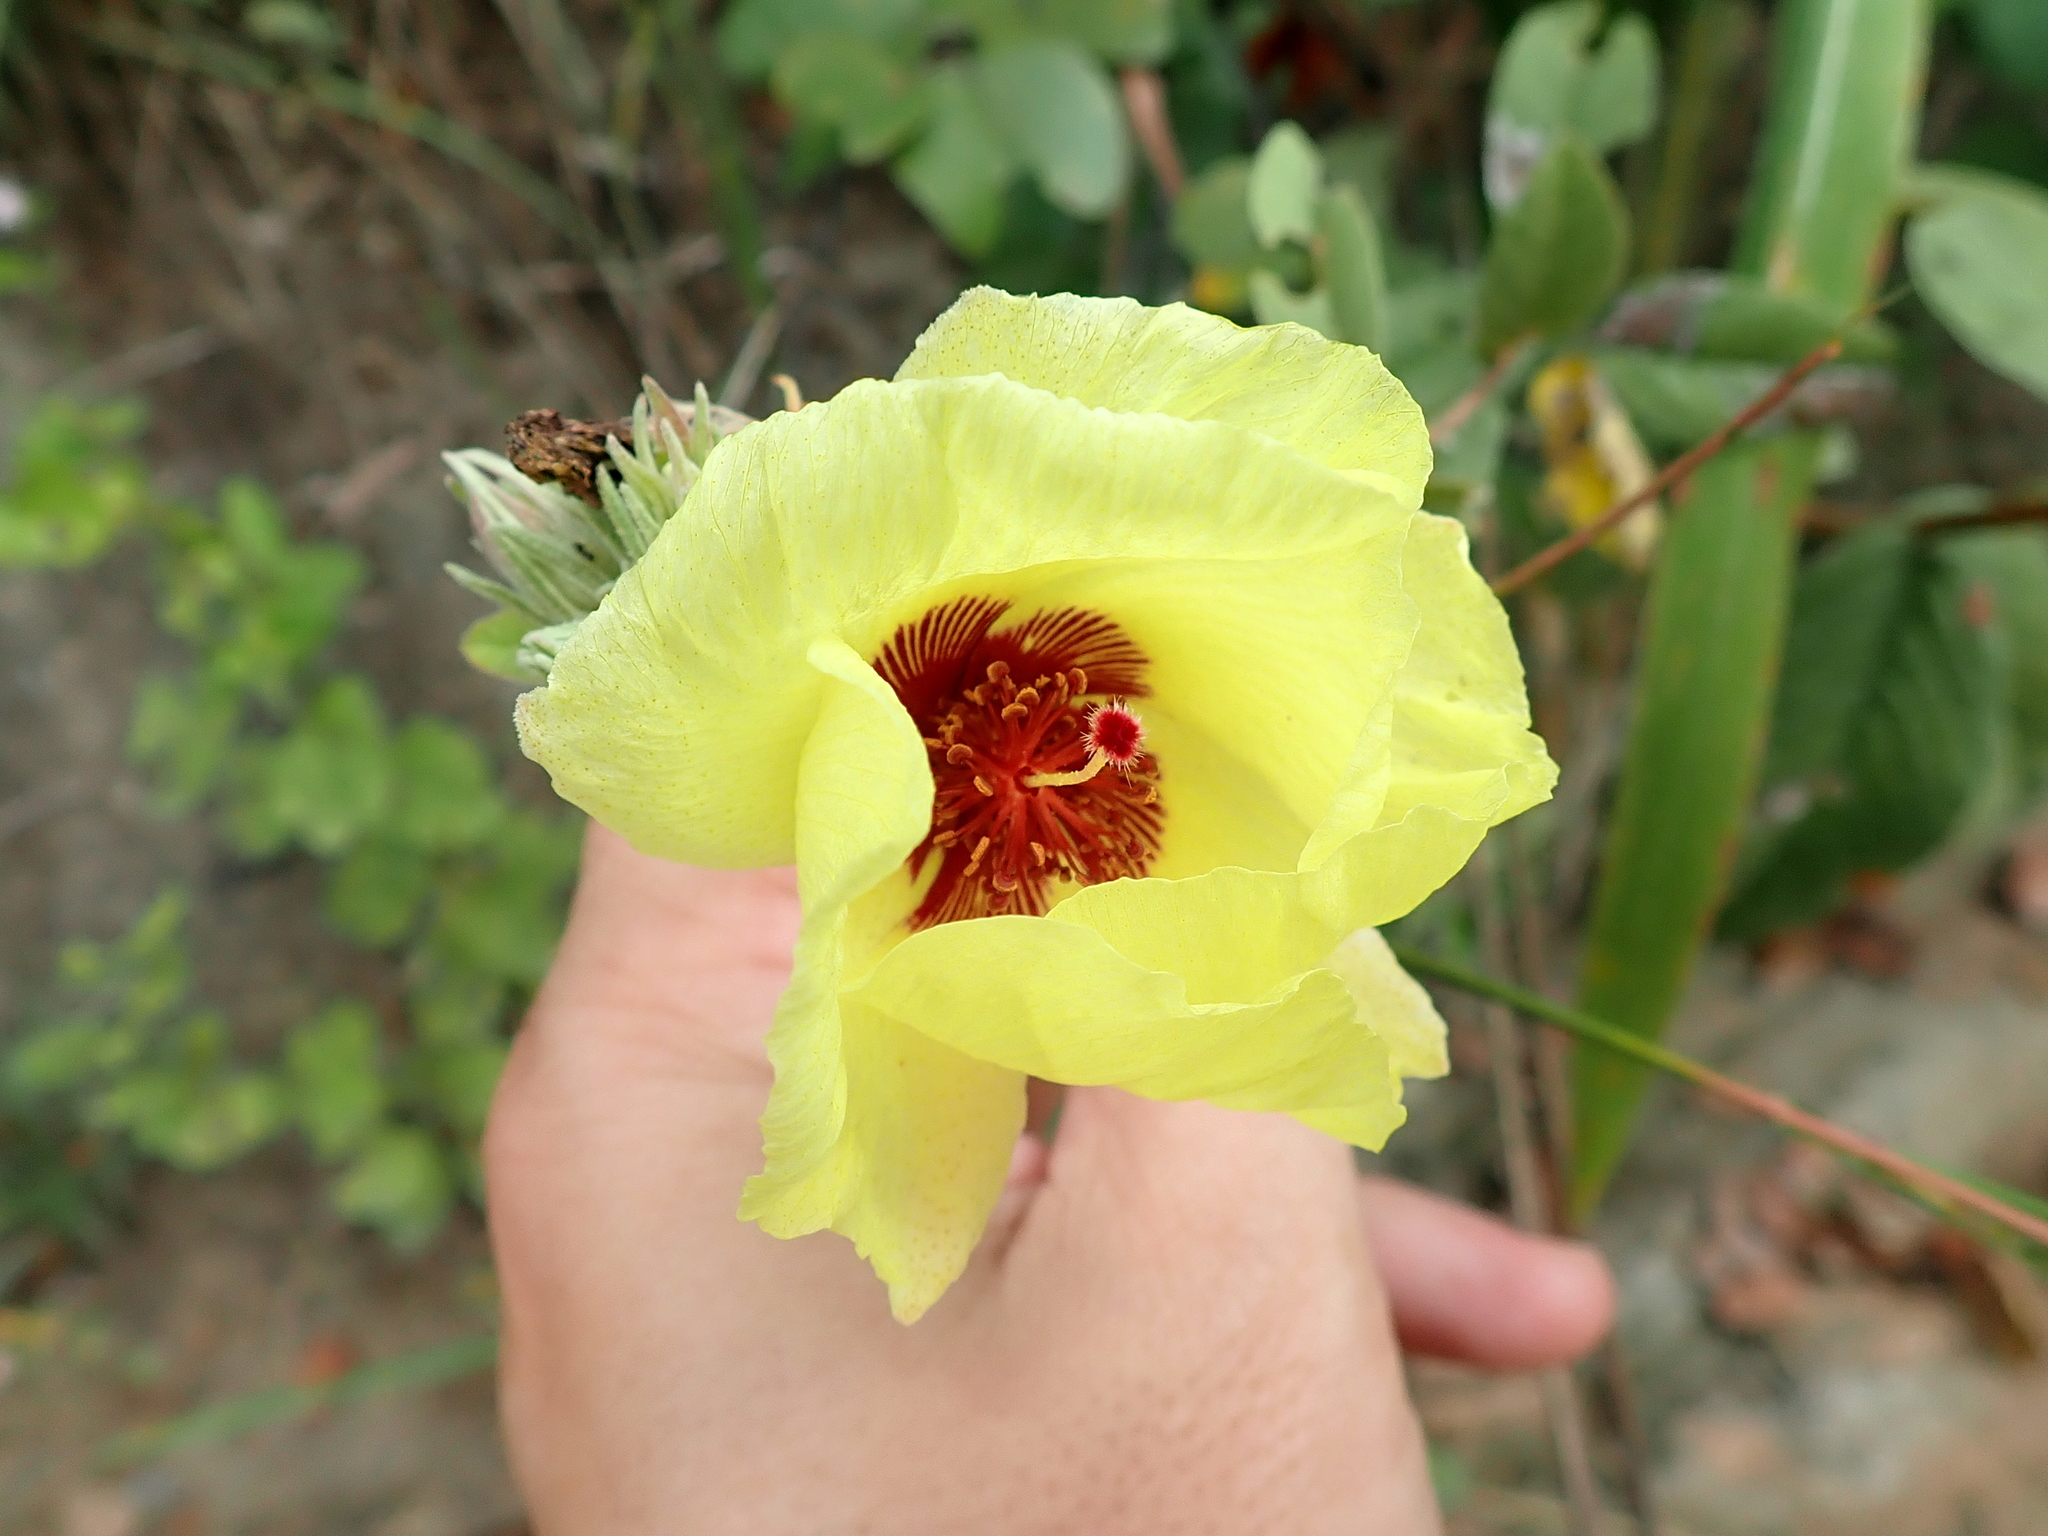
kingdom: Plantae
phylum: Tracheophyta
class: Magnoliopsida
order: Malvales
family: Malvaceae
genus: Cienfuegosia
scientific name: Cienfuegosia affinis
